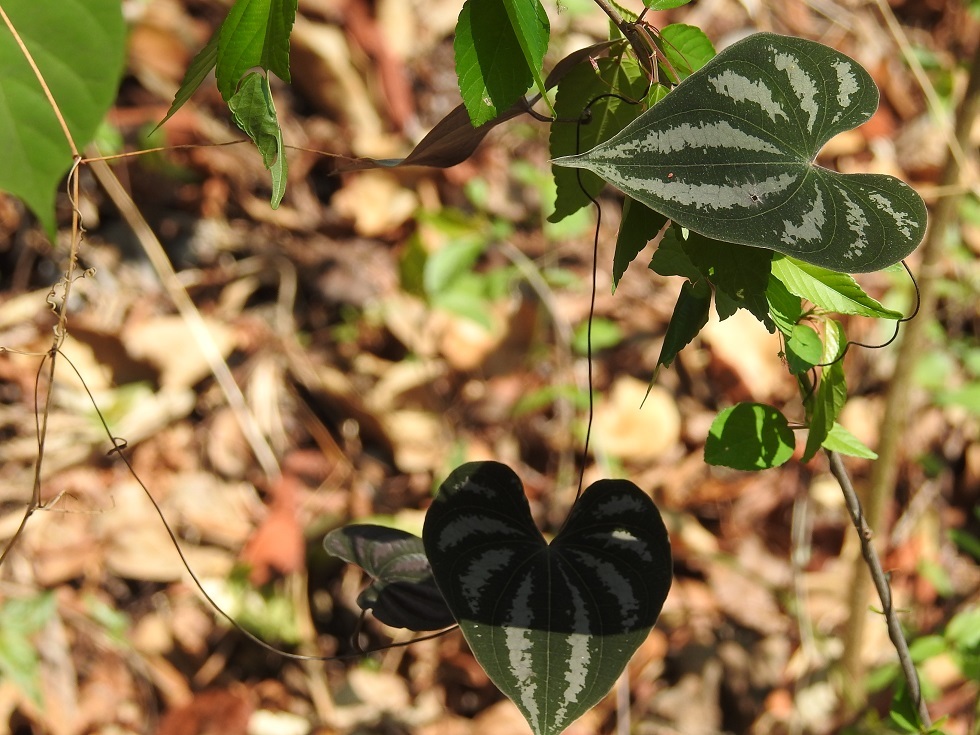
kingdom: Plantae
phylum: Tracheophyta
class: Liliopsida
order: Dioscoreales
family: Dioscoreaceae
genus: Dioscorea
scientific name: Dioscorea cyanisticta
